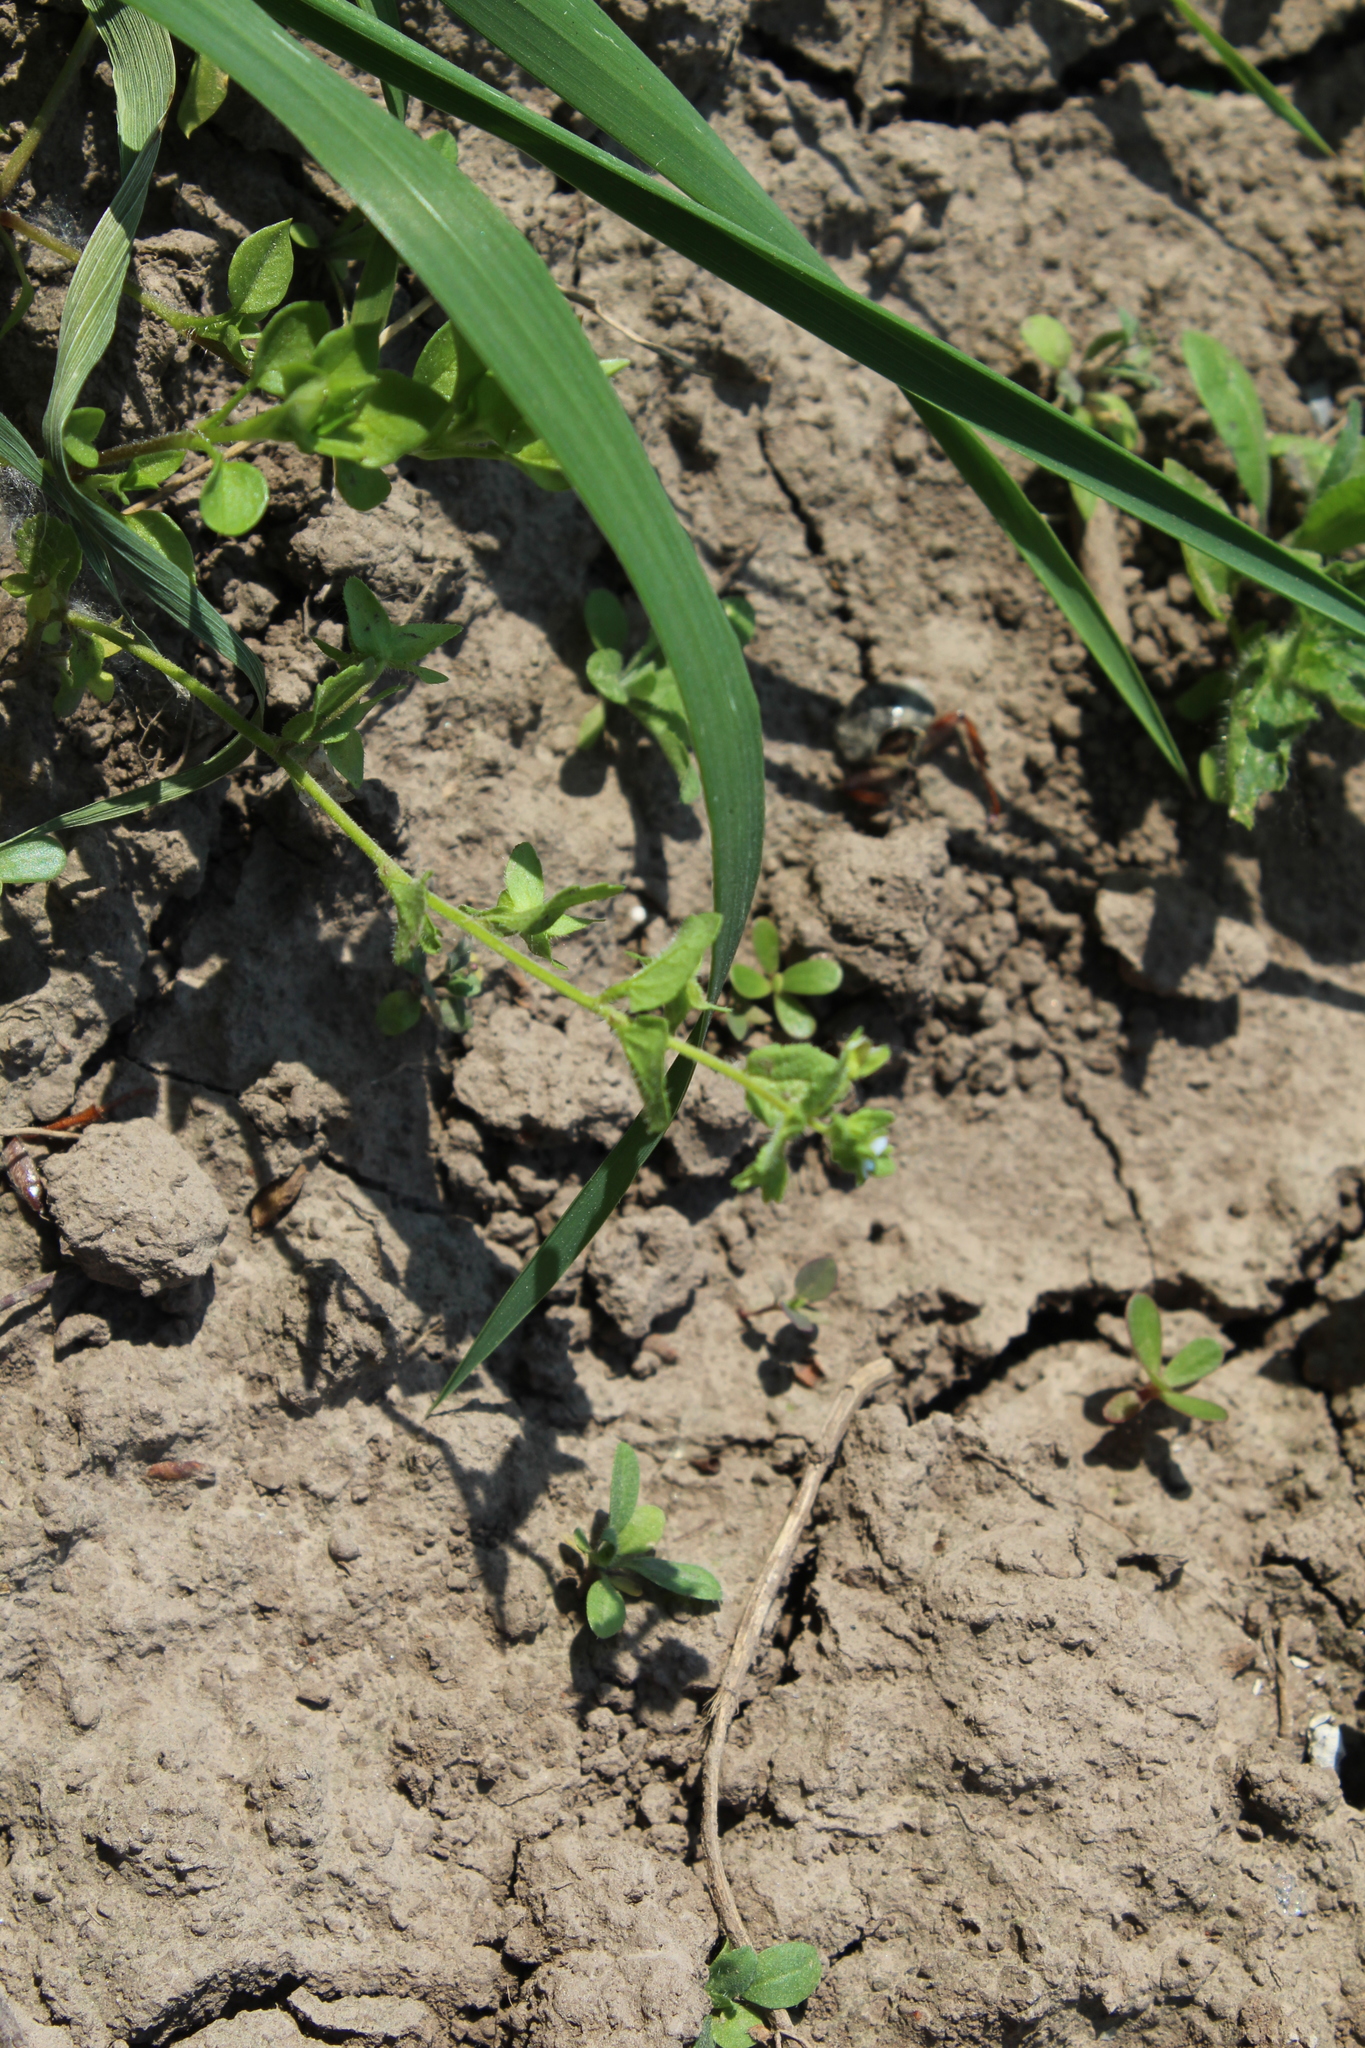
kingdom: Plantae
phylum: Tracheophyta
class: Magnoliopsida
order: Caryophyllales
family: Portulacaceae
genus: Portulaca
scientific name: Portulaca oleracea
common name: Common purslane
